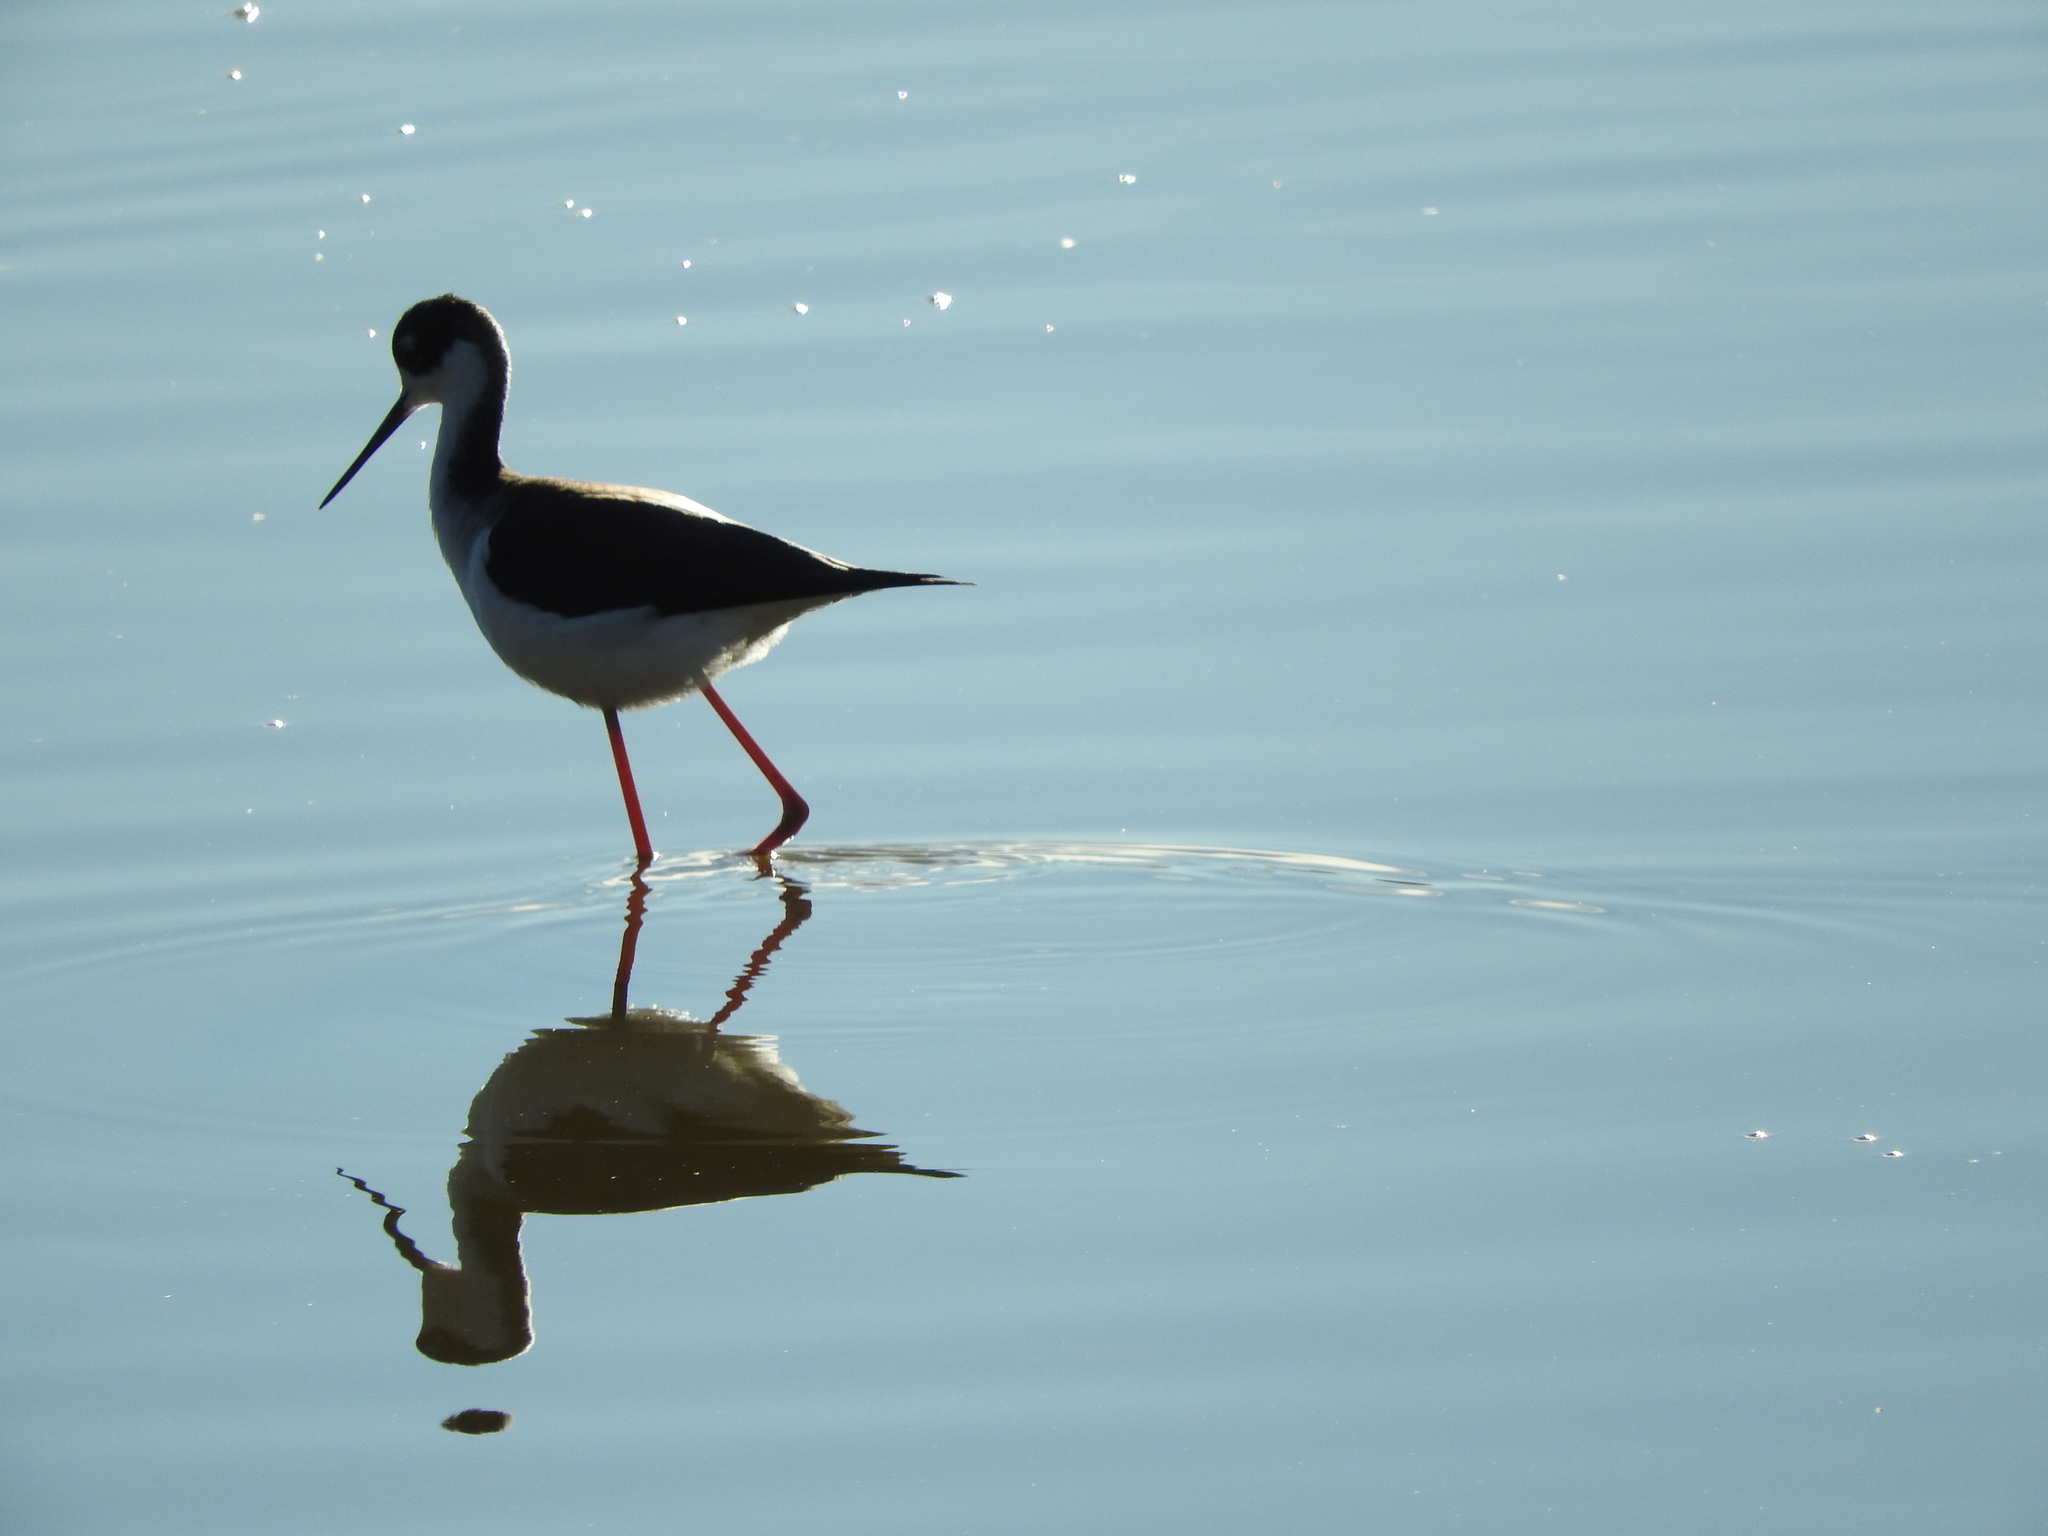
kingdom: Animalia
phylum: Chordata
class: Aves
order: Charadriiformes
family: Recurvirostridae
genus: Himantopus
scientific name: Himantopus mexicanus
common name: Black-necked stilt
